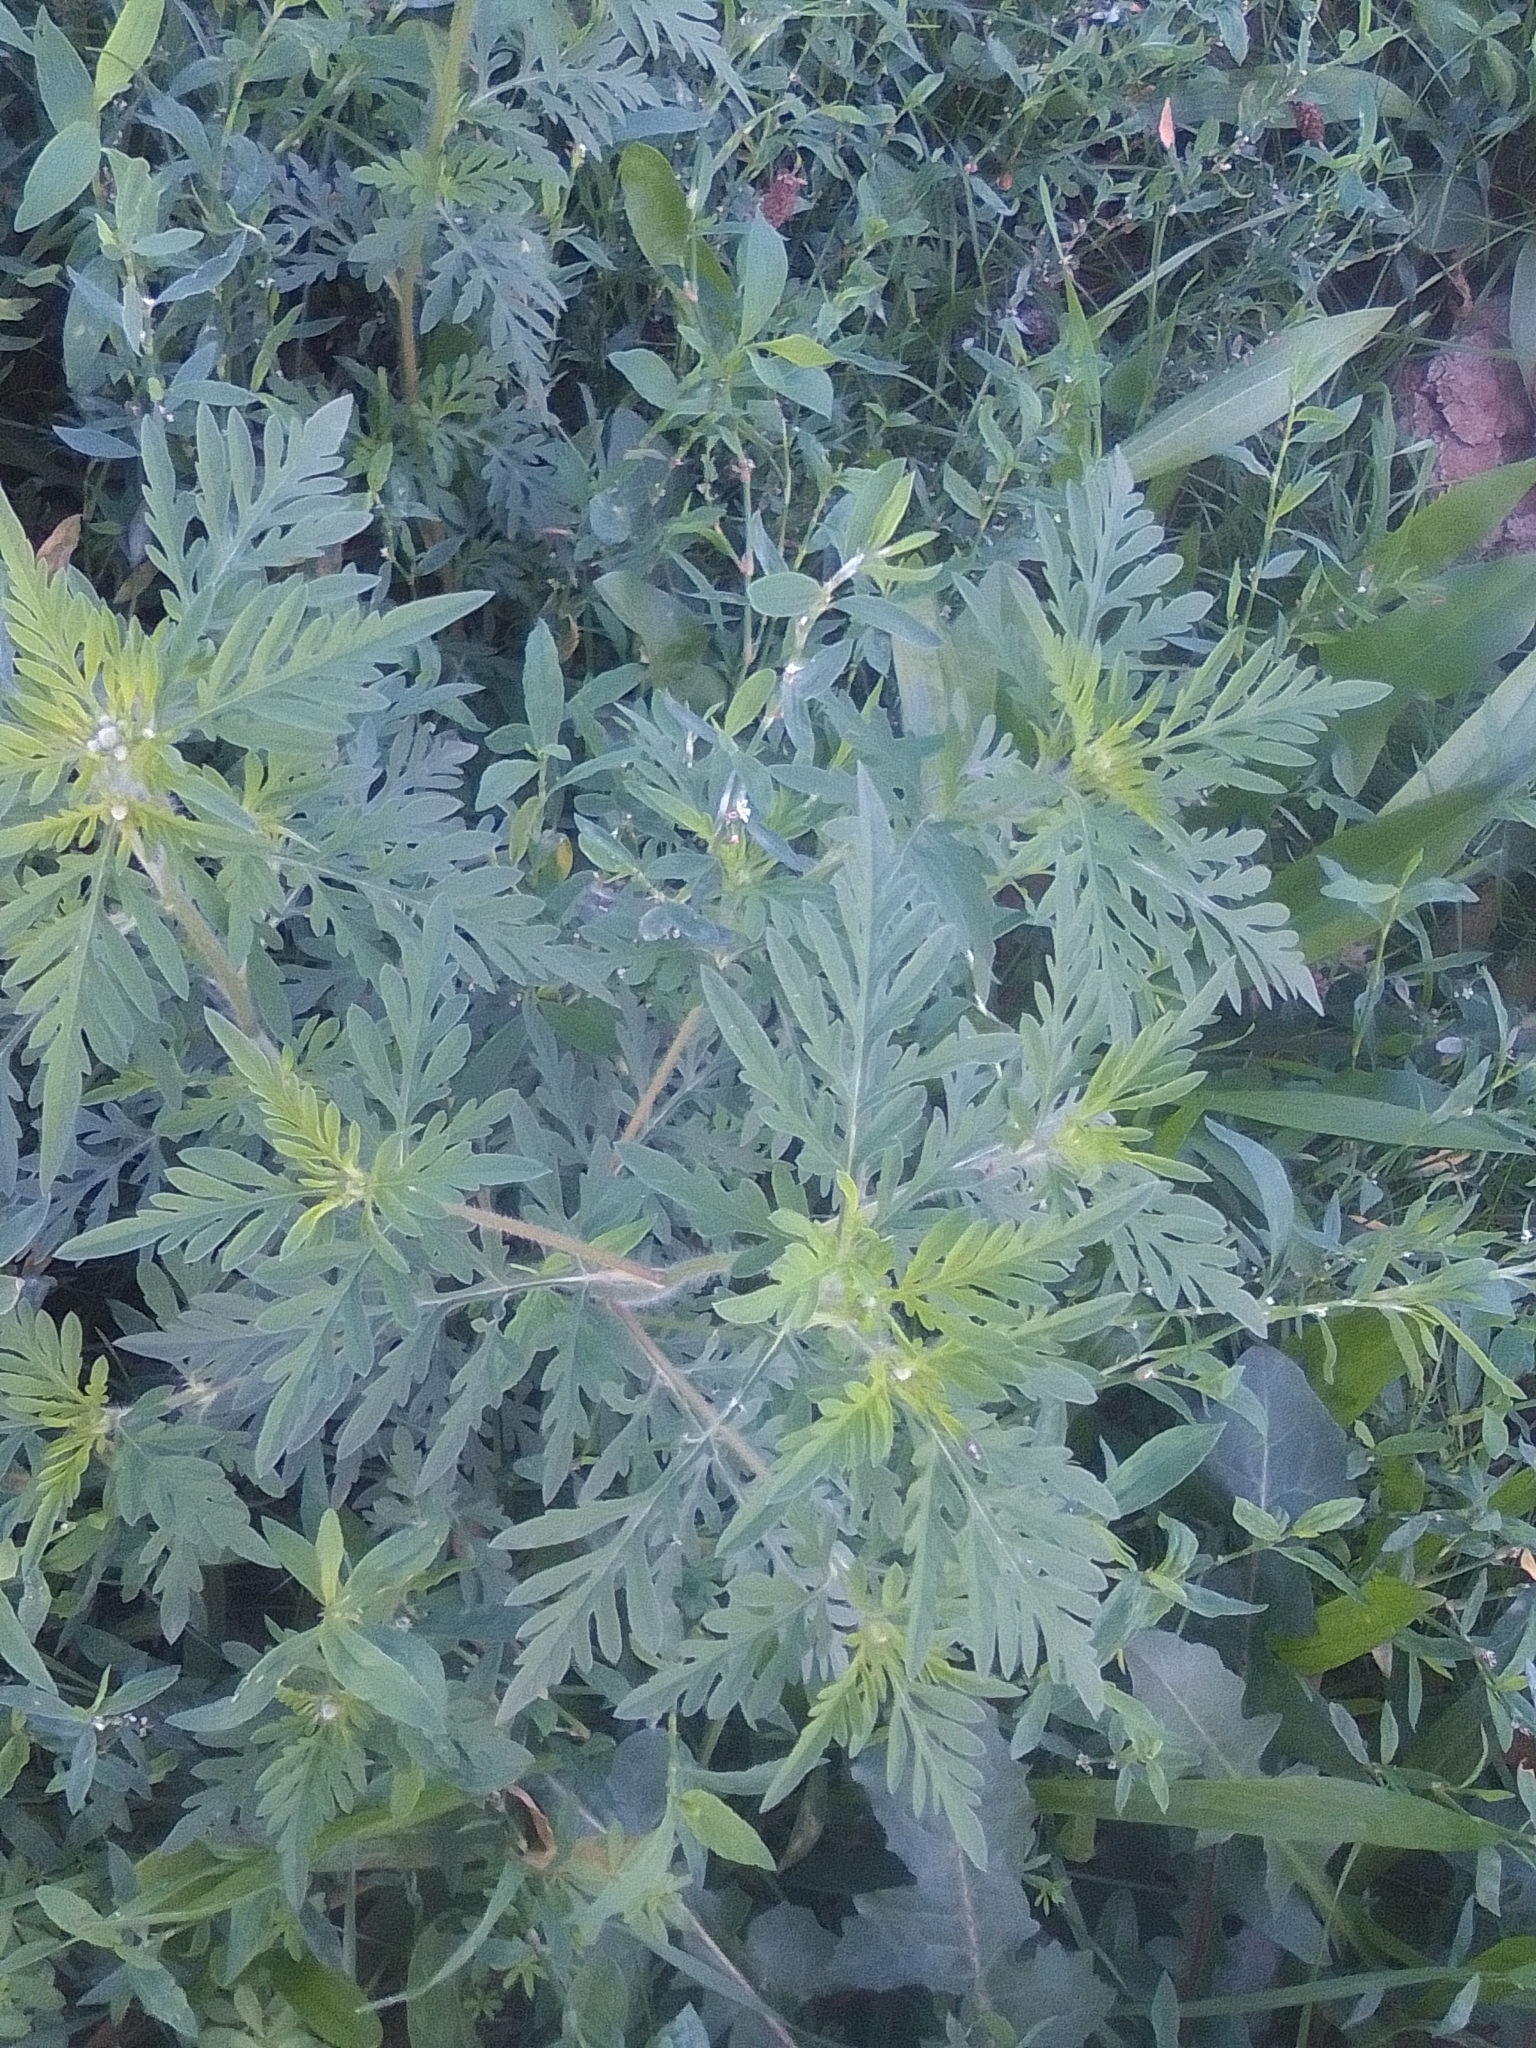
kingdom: Plantae
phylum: Tracheophyta
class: Magnoliopsida
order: Asterales
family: Asteraceae
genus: Ambrosia
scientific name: Ambrosia artemisiifolia
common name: Annual ragweed
